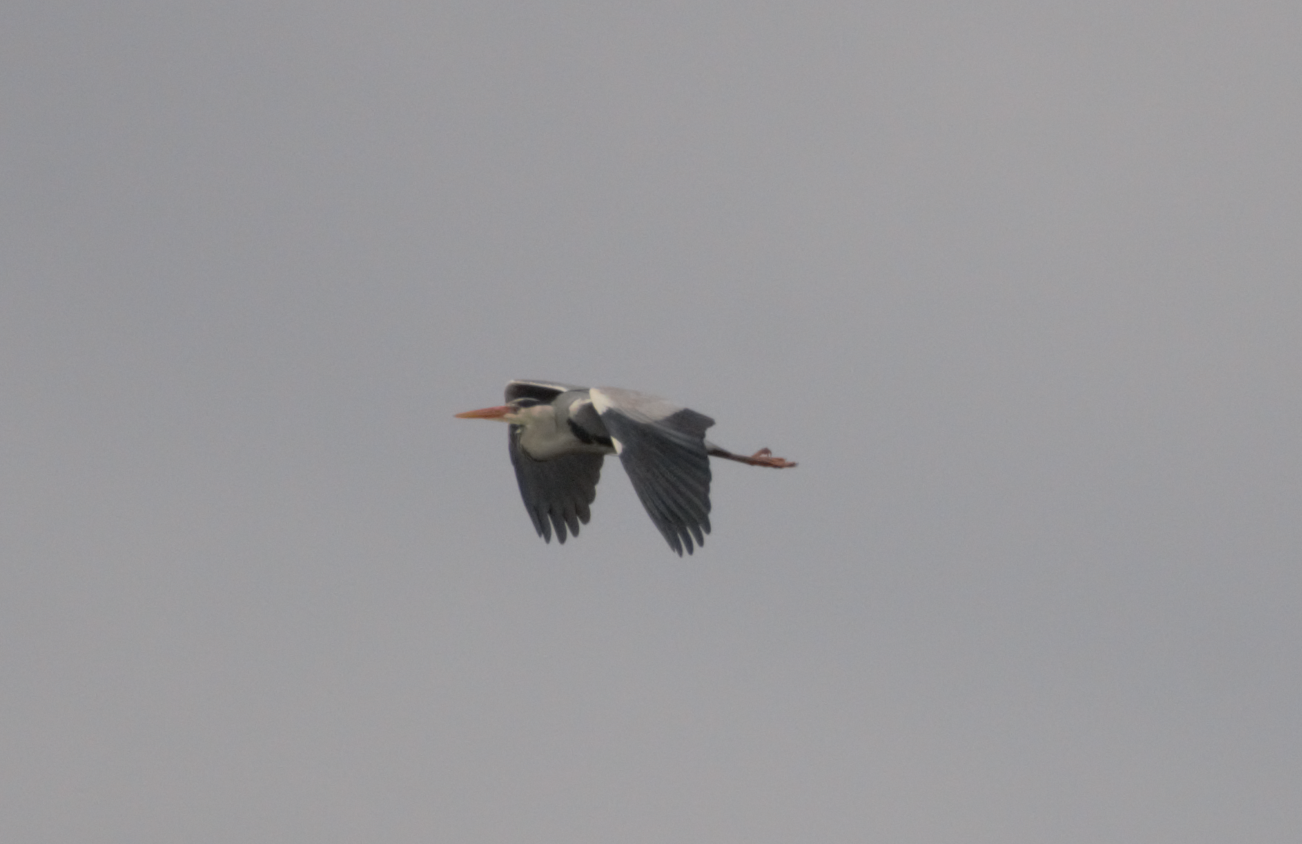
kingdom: Animalia
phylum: Chordata
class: Aves
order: Pelecaniformes
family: Ardeidae
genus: Ardea
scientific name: Ardea cinerea
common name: Grey heron
